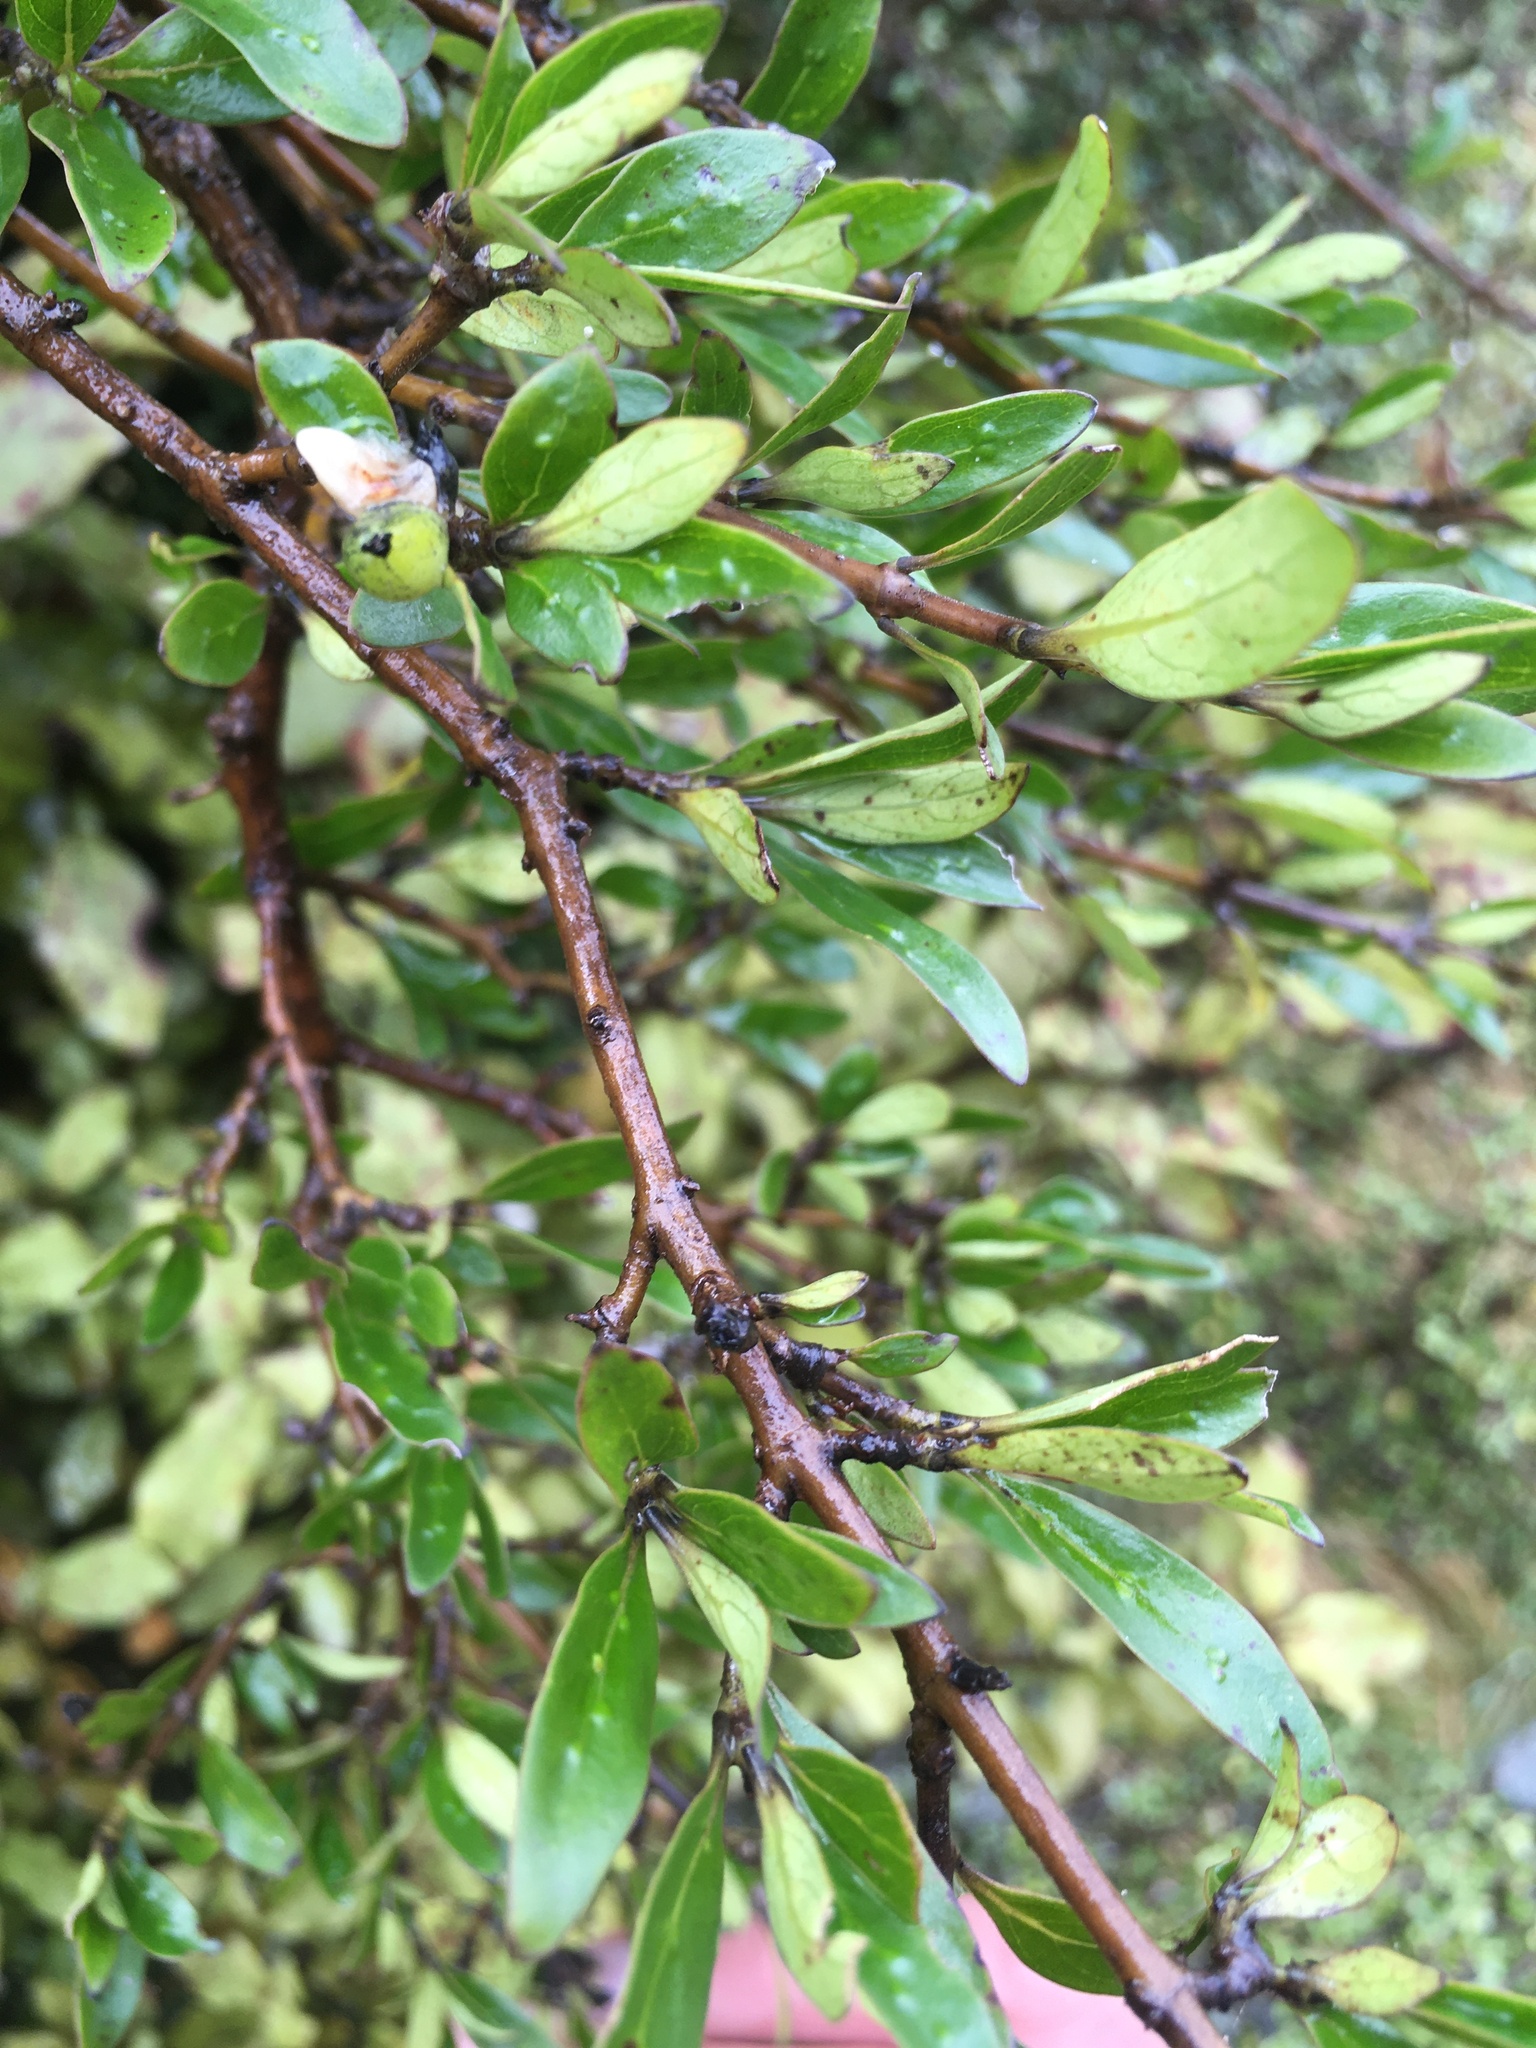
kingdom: Plantae
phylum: Tracheophyta
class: Magnoliopsida
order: Gentianales
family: Rubiaceae
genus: Coprosma
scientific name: Coprosma cunninghamii
